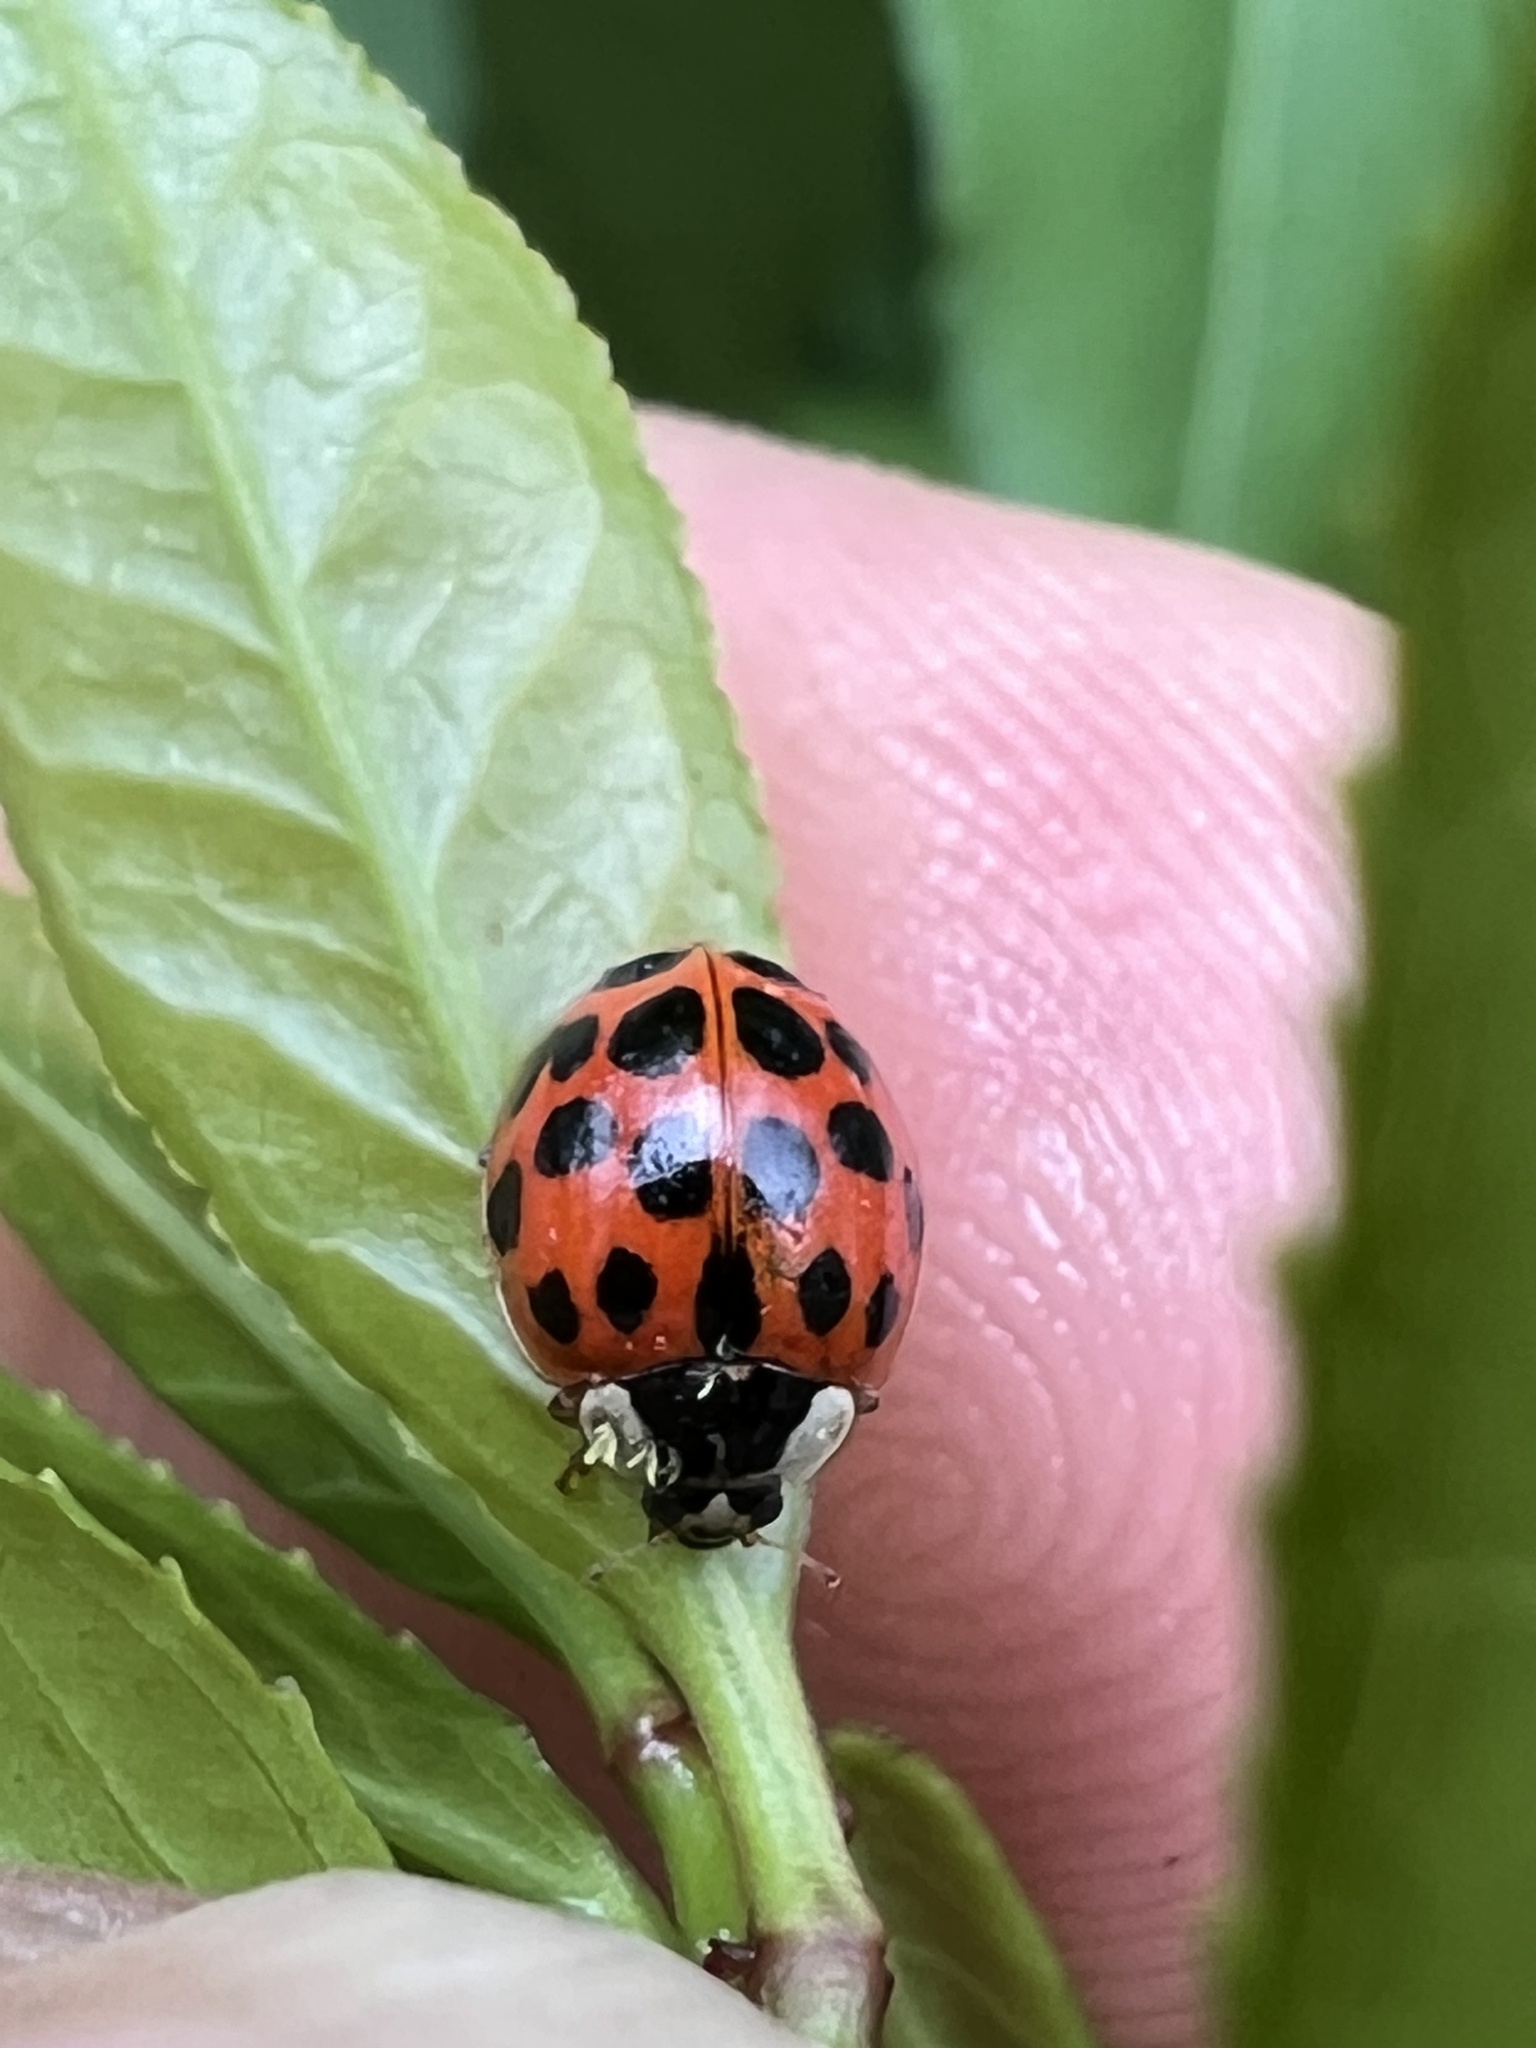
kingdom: Animalia
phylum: Arthropoda
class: Insecta
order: Coleoptera
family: Coccinellidae
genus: Harmonia
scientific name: Harmonia axyridis
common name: Harlequin ladybird
